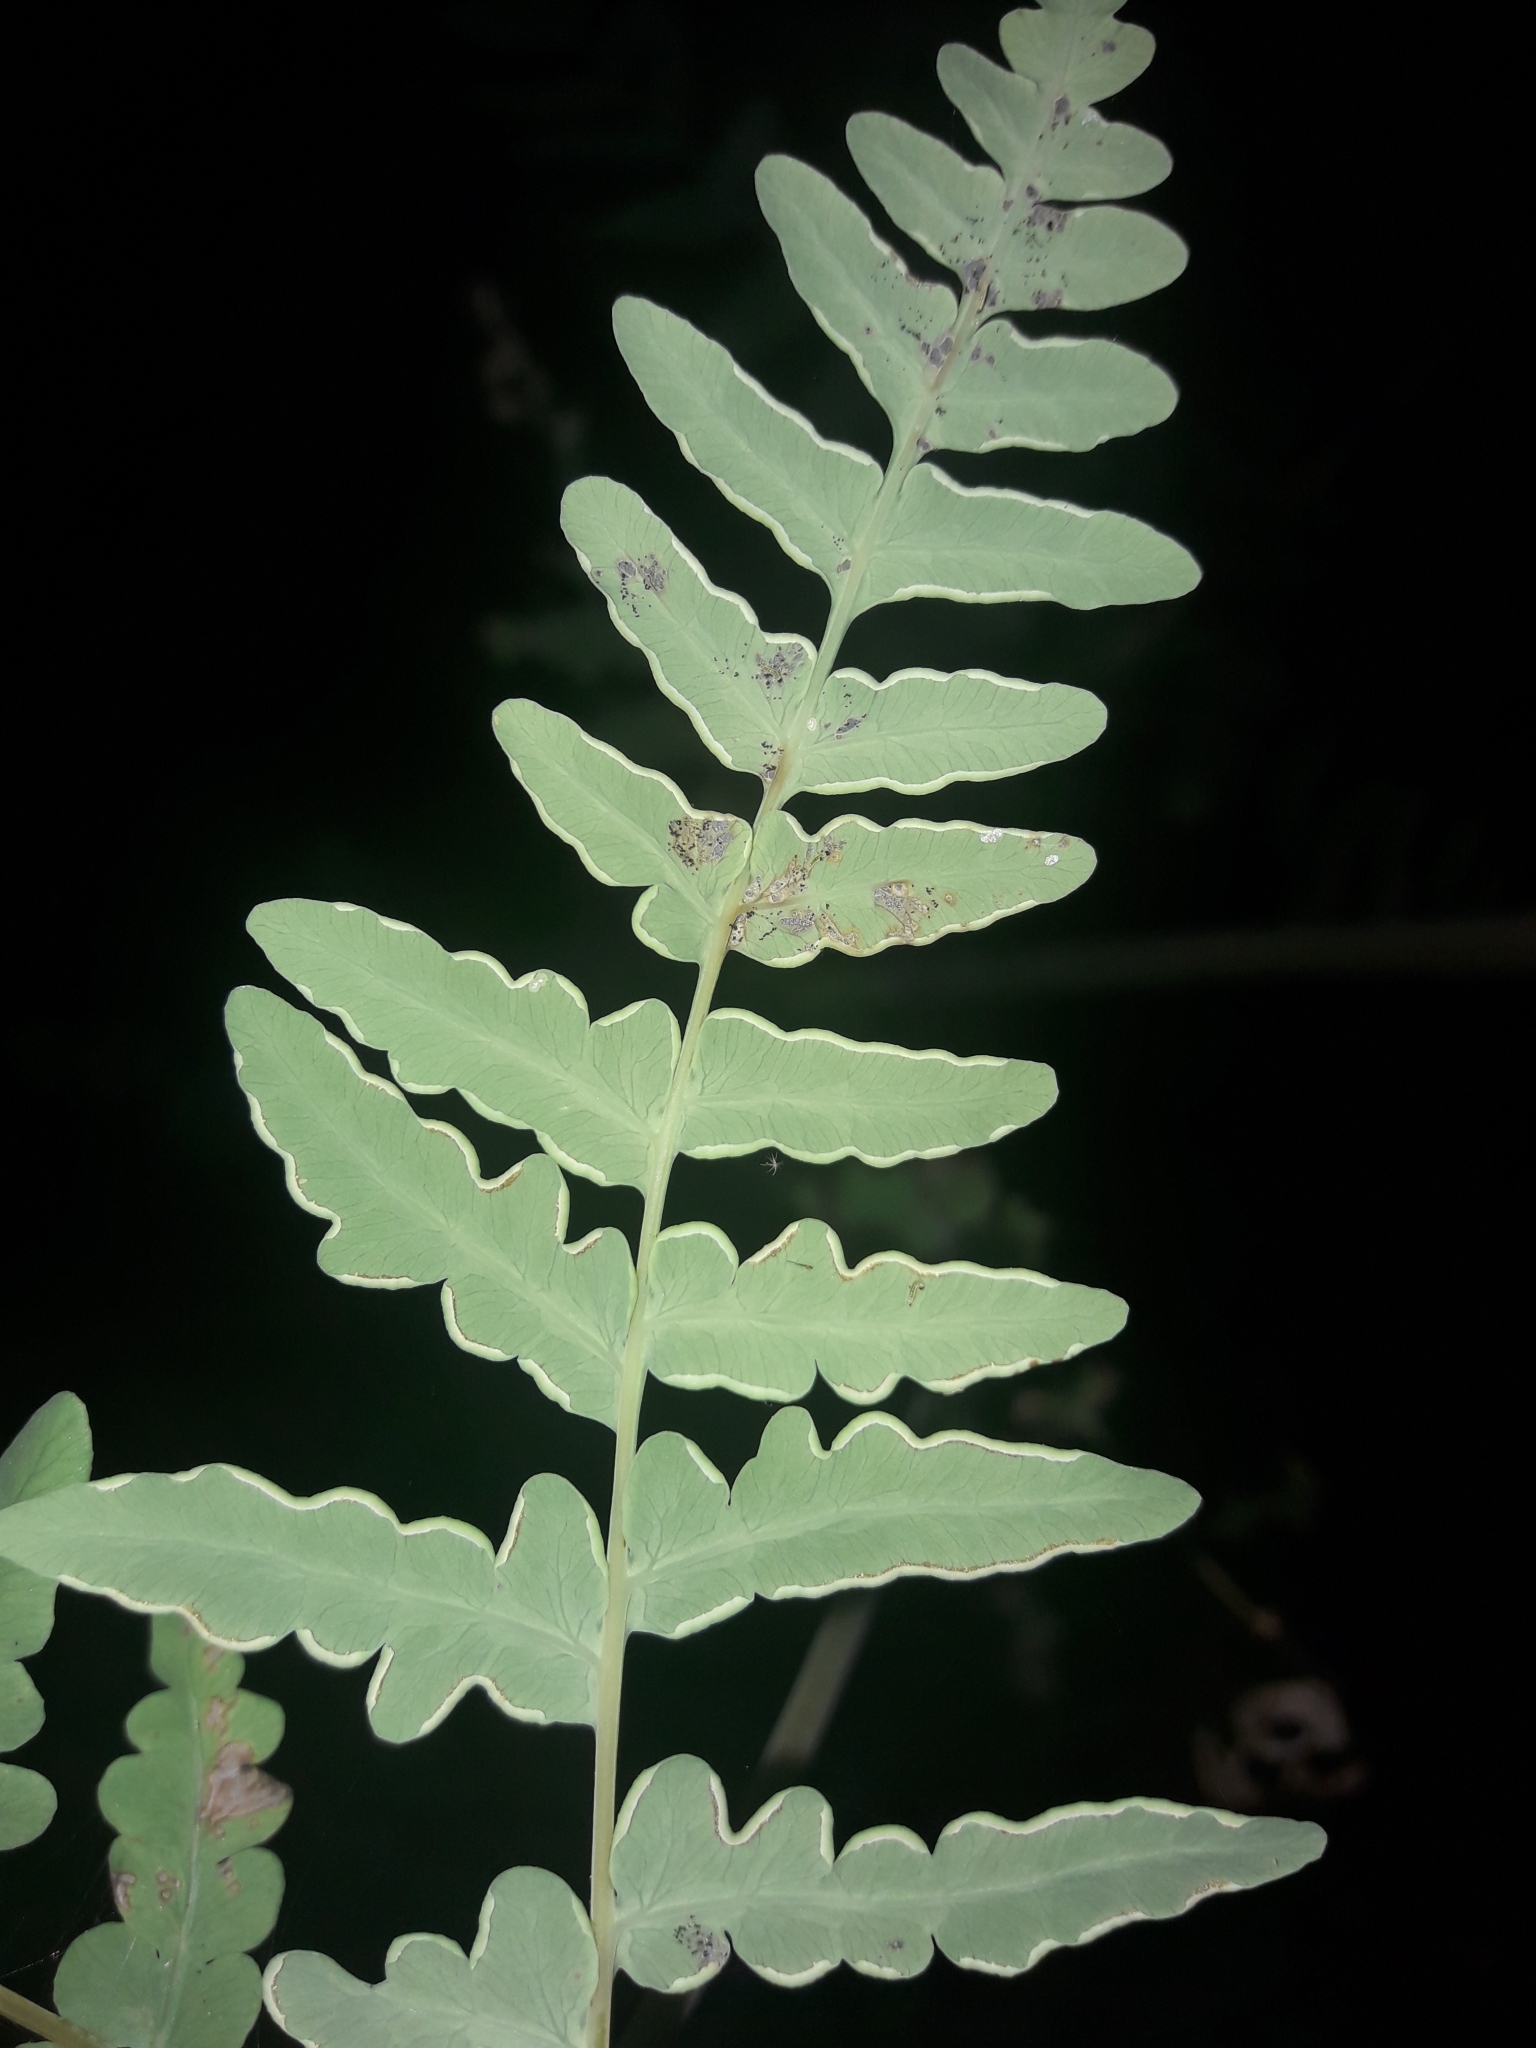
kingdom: Plantae
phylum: Tracheophyta
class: Polypodiopsida
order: Polypodiales
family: Dennstaedtiaceae
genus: Histiopteris
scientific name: Histiopteris incisa
